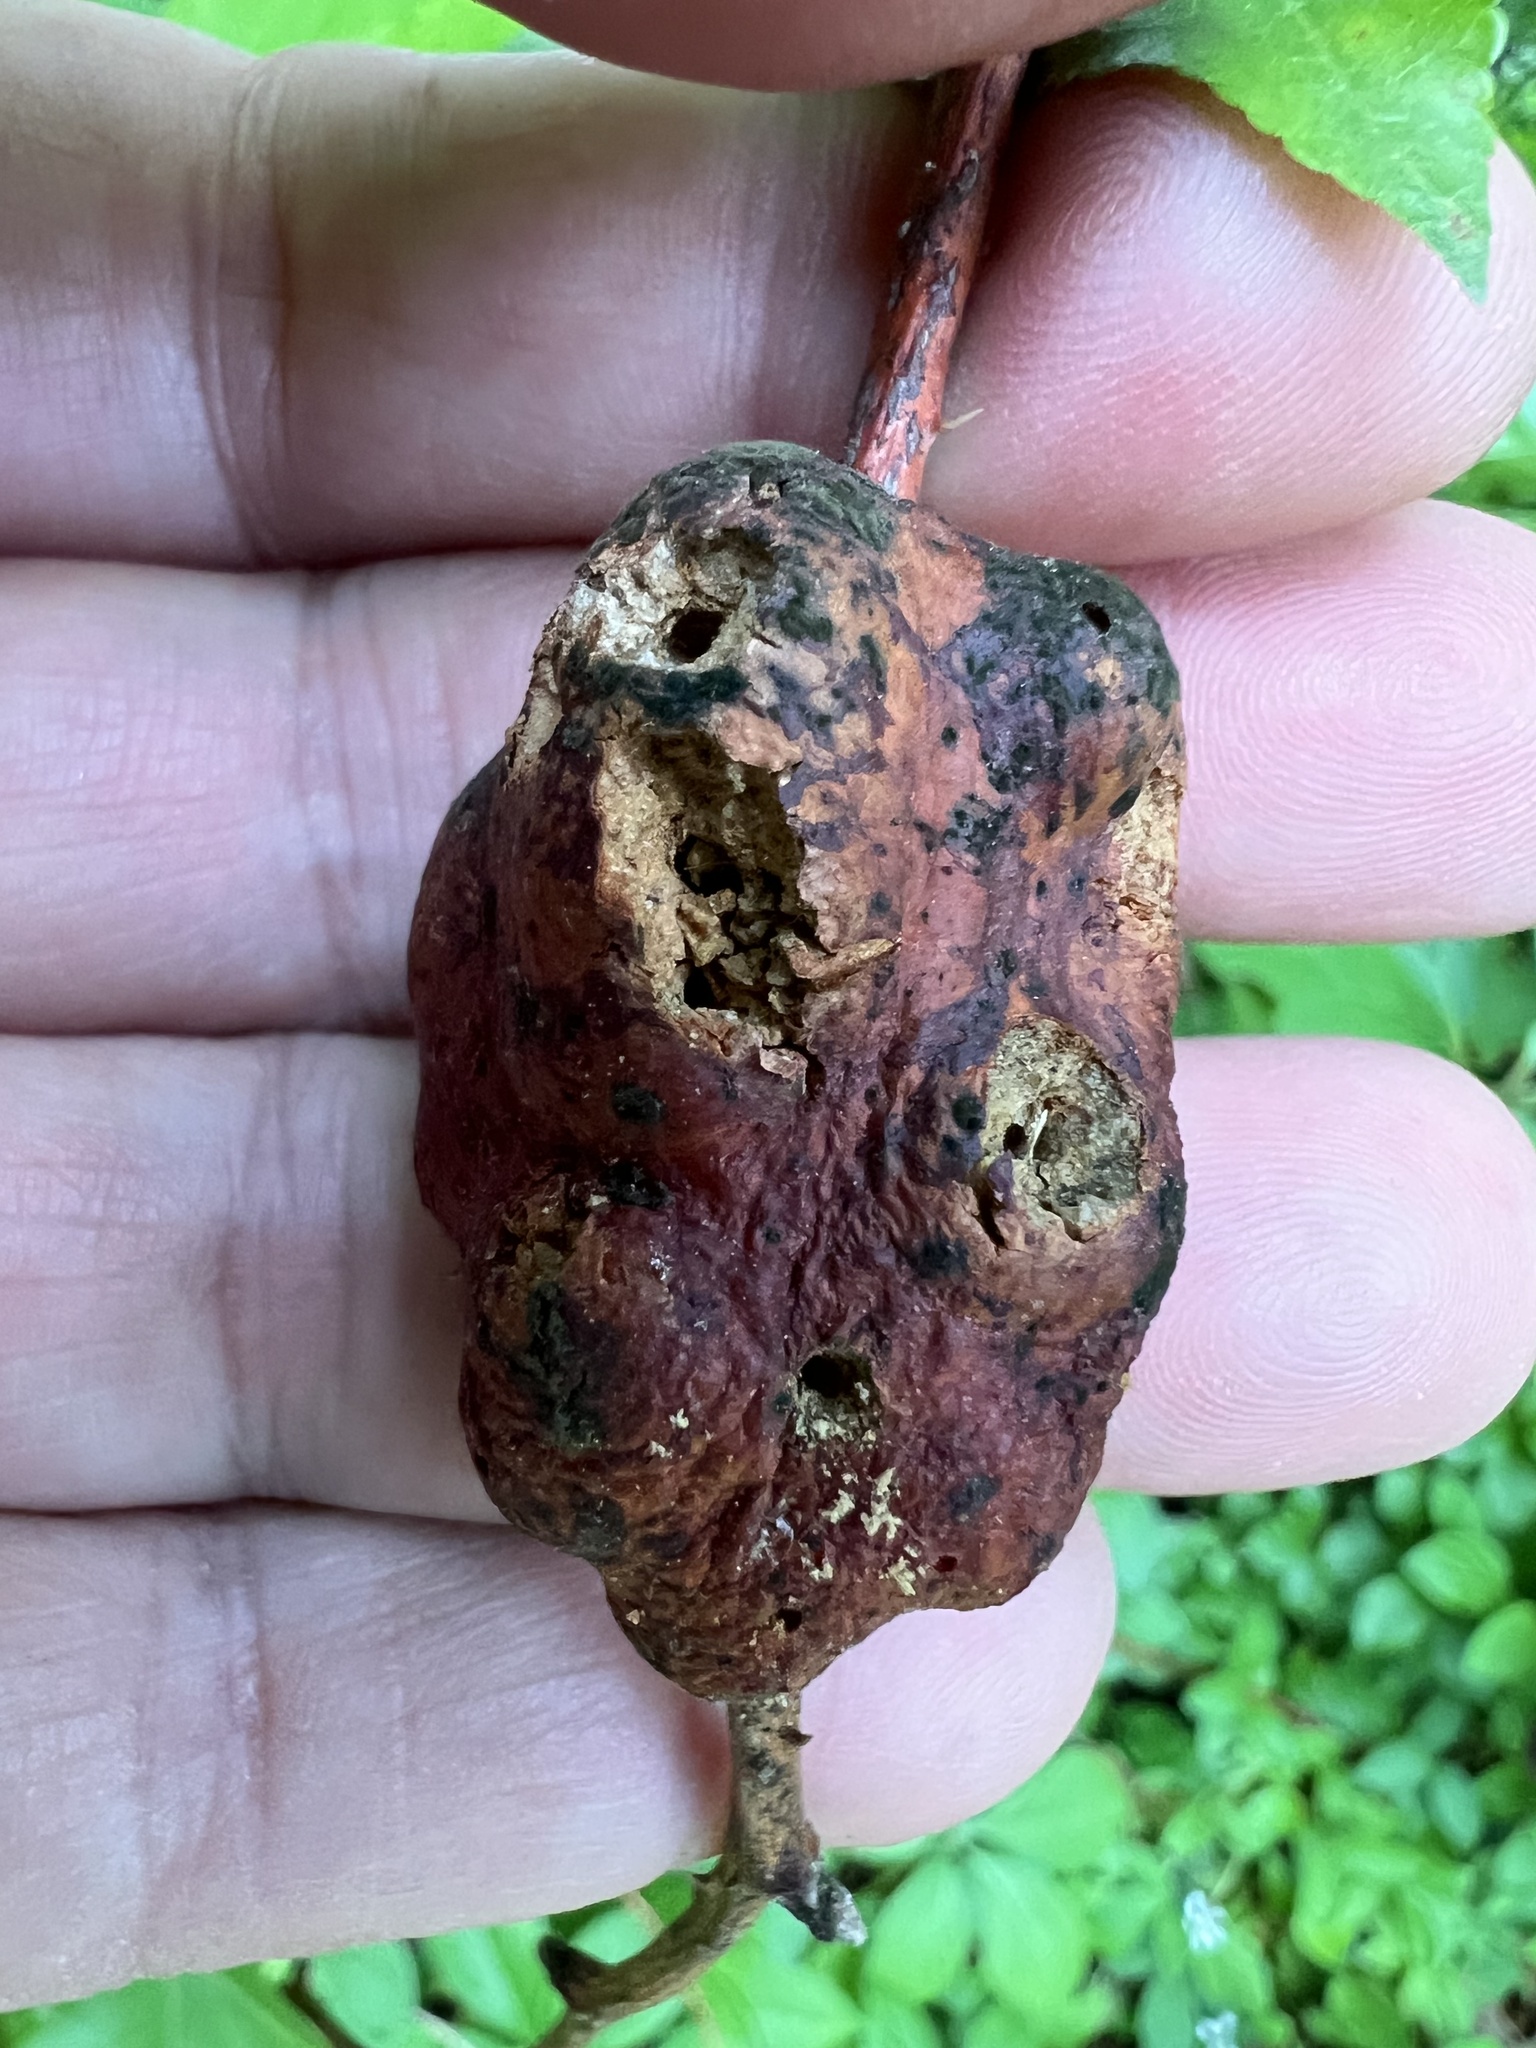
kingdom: Animalia
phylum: Arthropoda
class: Insecta
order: Hymenoptera
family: Cynipidae
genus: Diastrophus
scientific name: Diastrophus
